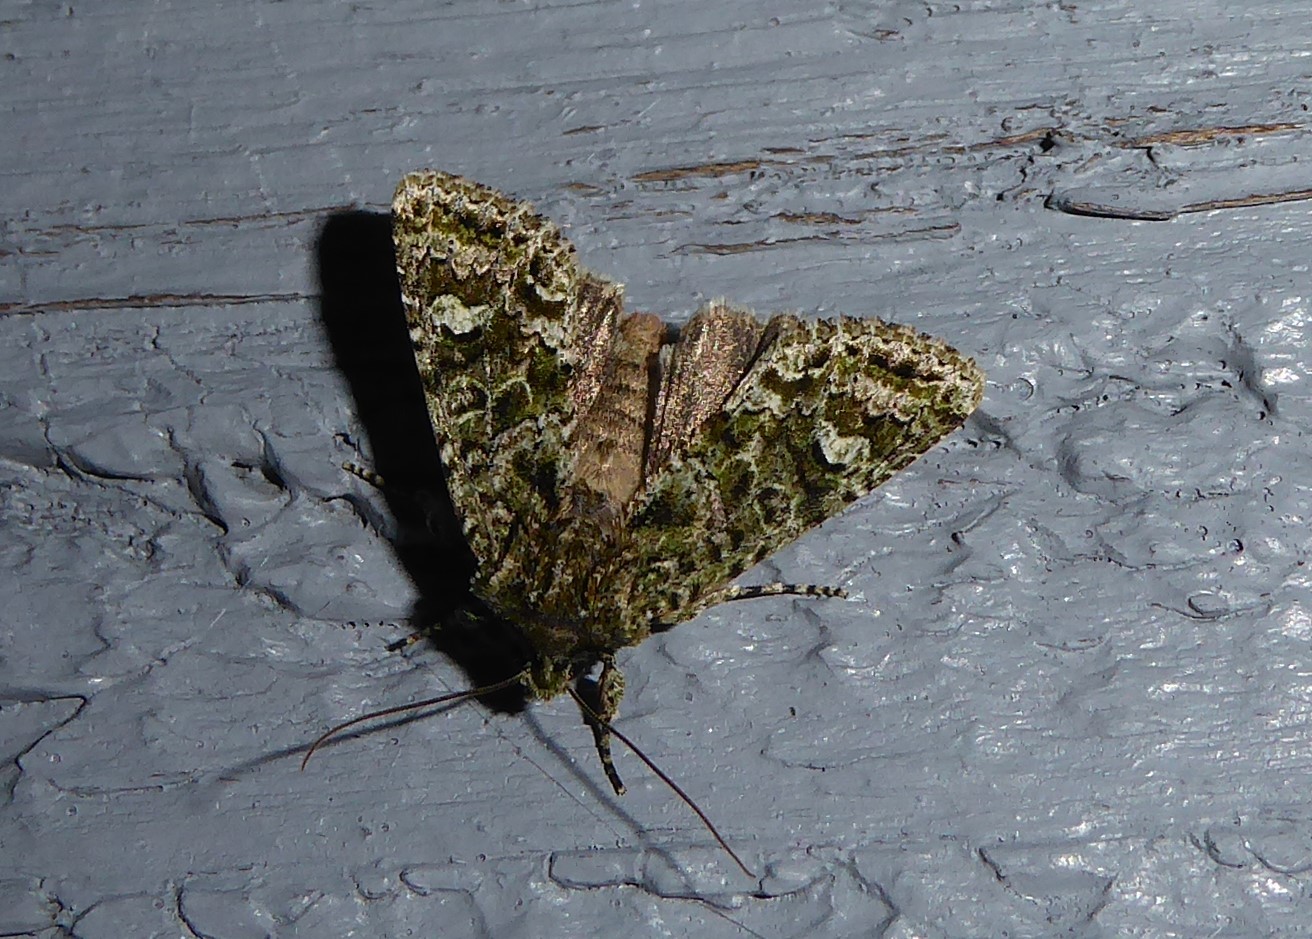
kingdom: Animalia
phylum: Arthropoda
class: Insecta
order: Lepidoptera
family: Noctuidae
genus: Ichneutica
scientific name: Ichneutica
